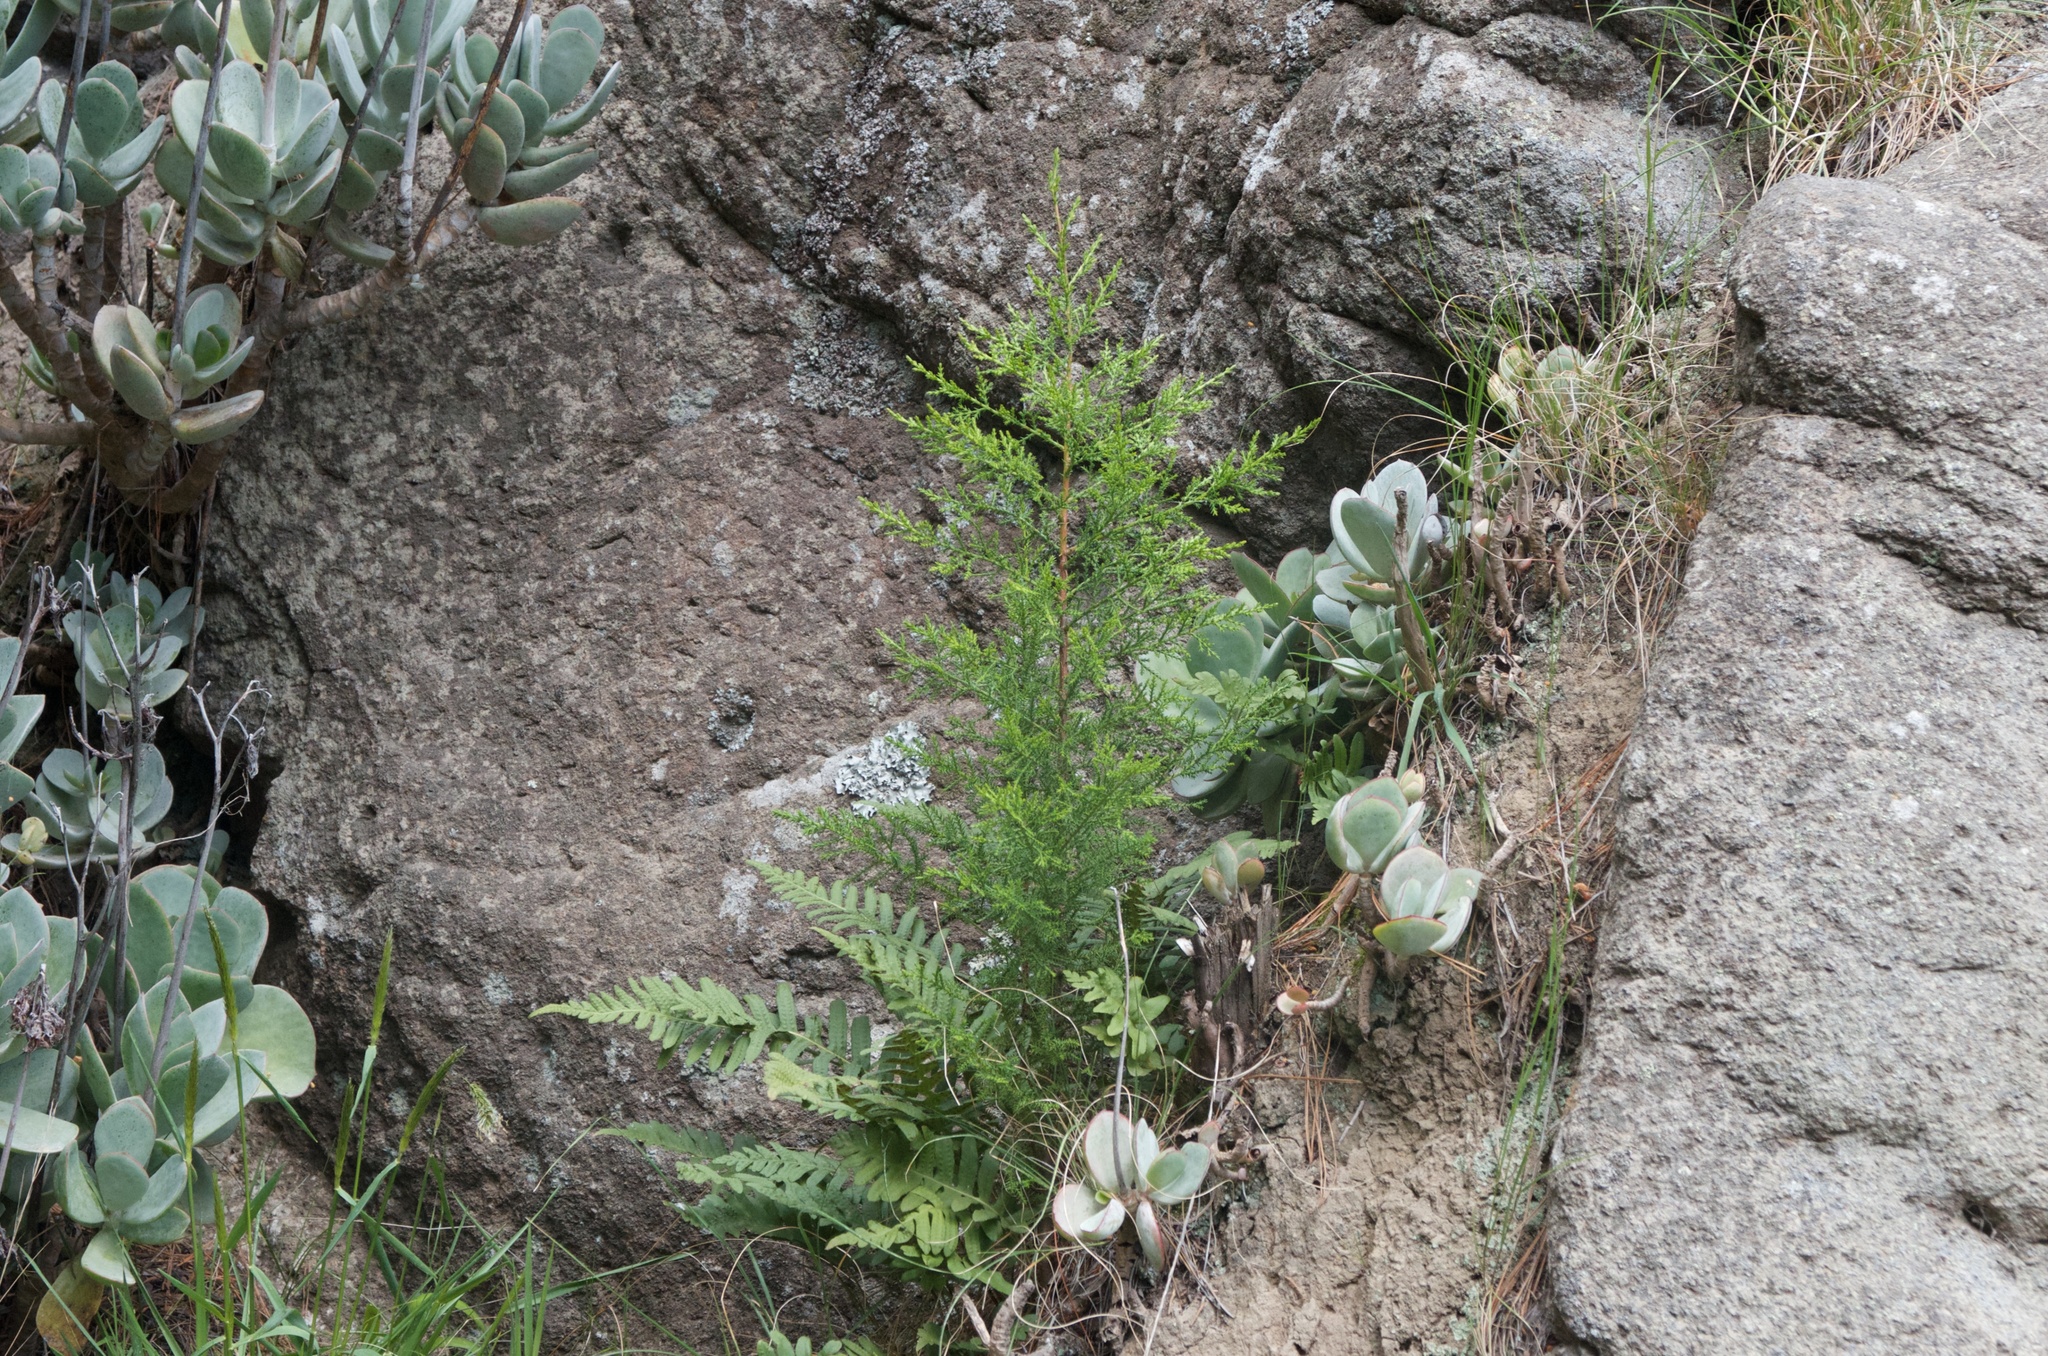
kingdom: Plantae
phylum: Tracheophyta
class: Pinopsida
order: Pinales
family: Cupressaceae
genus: Cupressus
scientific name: Cupressus macrocarpa
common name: Monterey cypress
